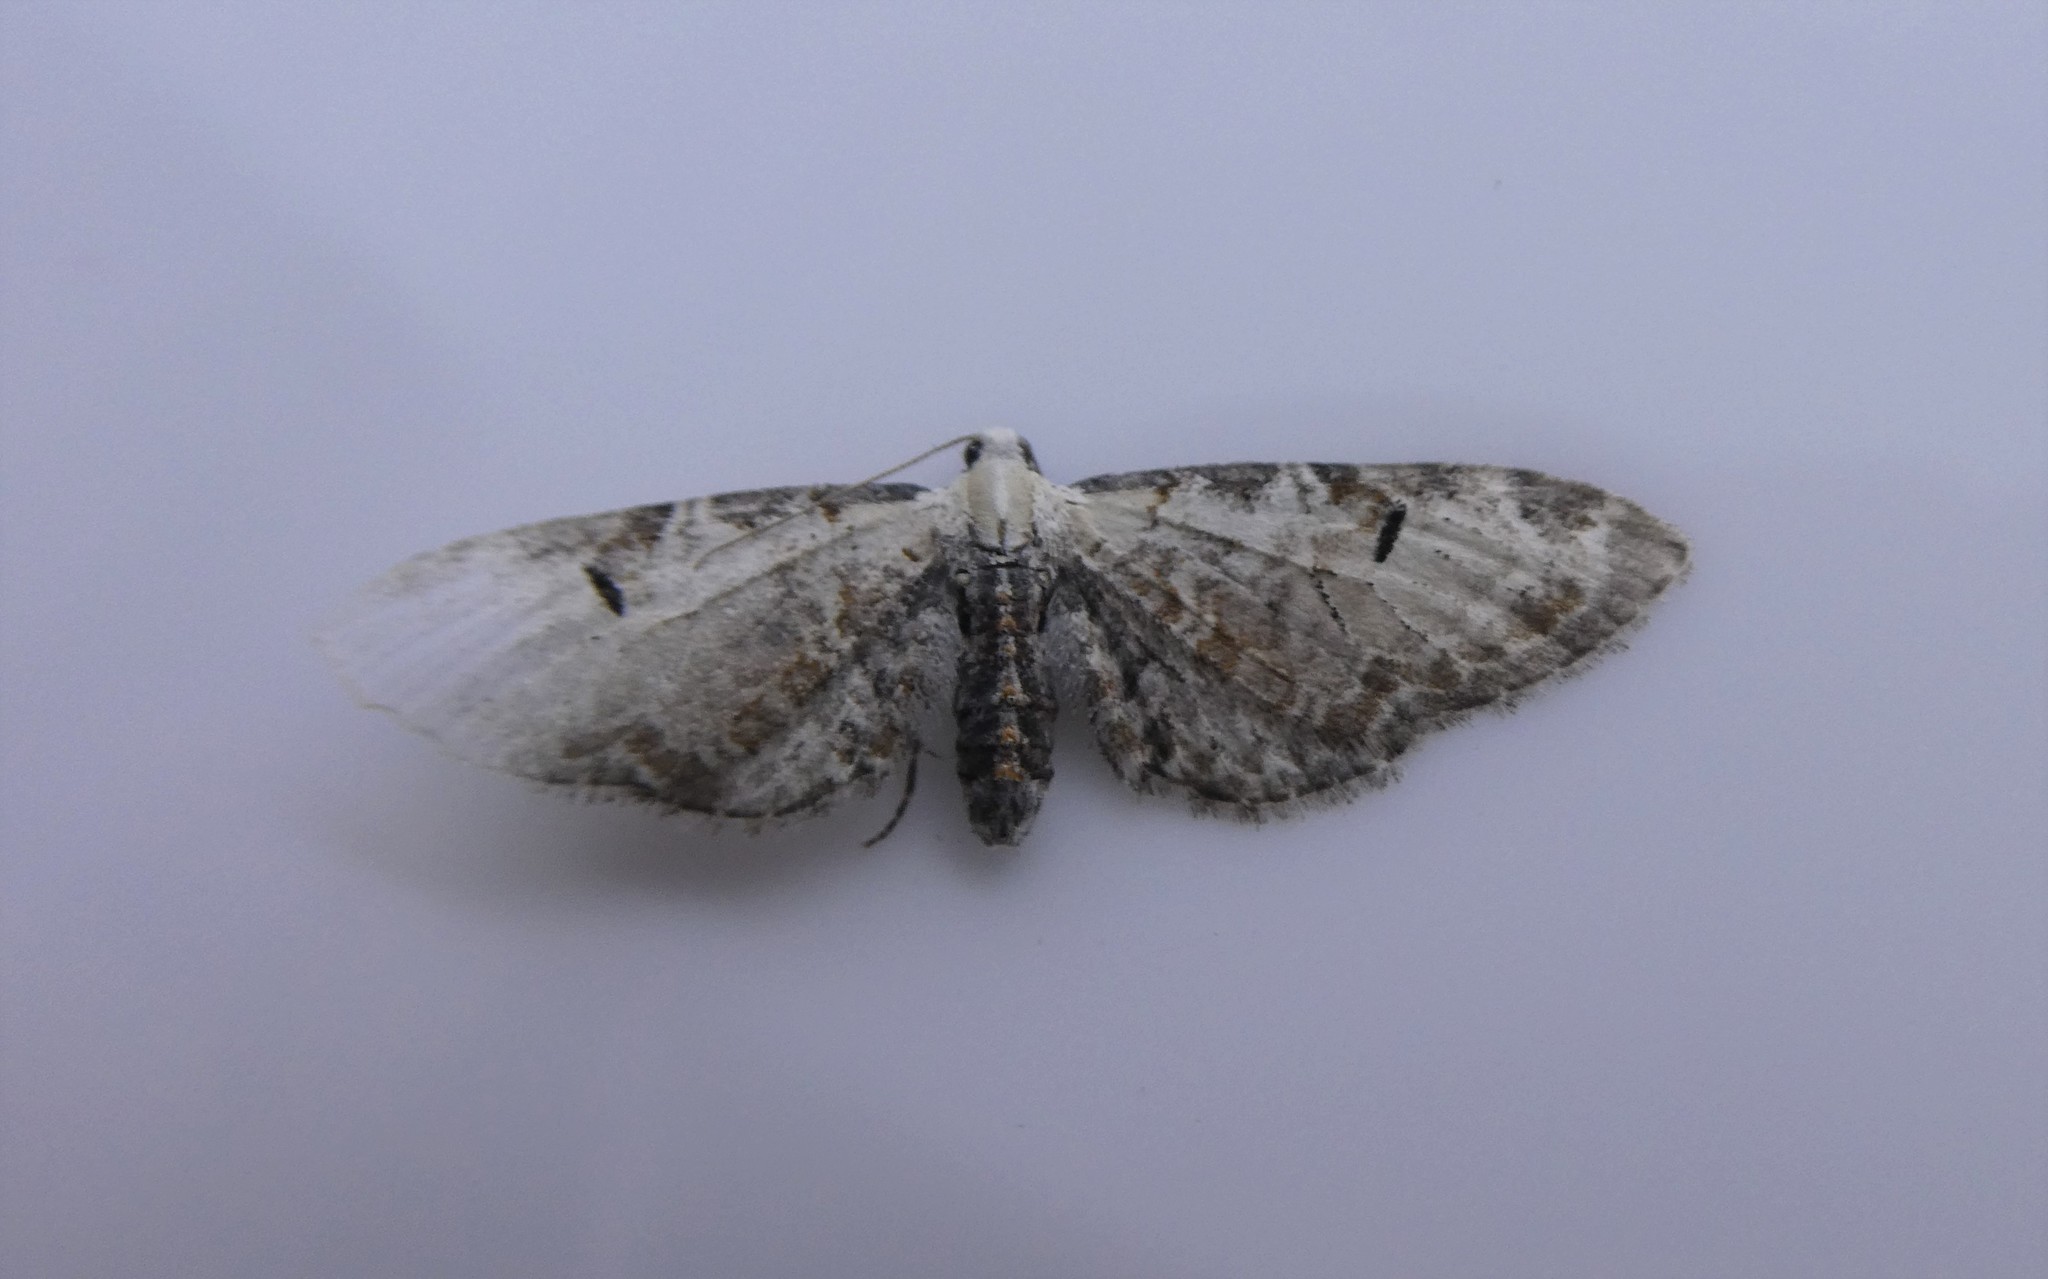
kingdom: Animalia
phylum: Arthropoda
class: Insecta
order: Lepidoptera
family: Geometridae
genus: Eupithecia
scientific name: Eupithecia ravocostaliata
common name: Great varigated pug
